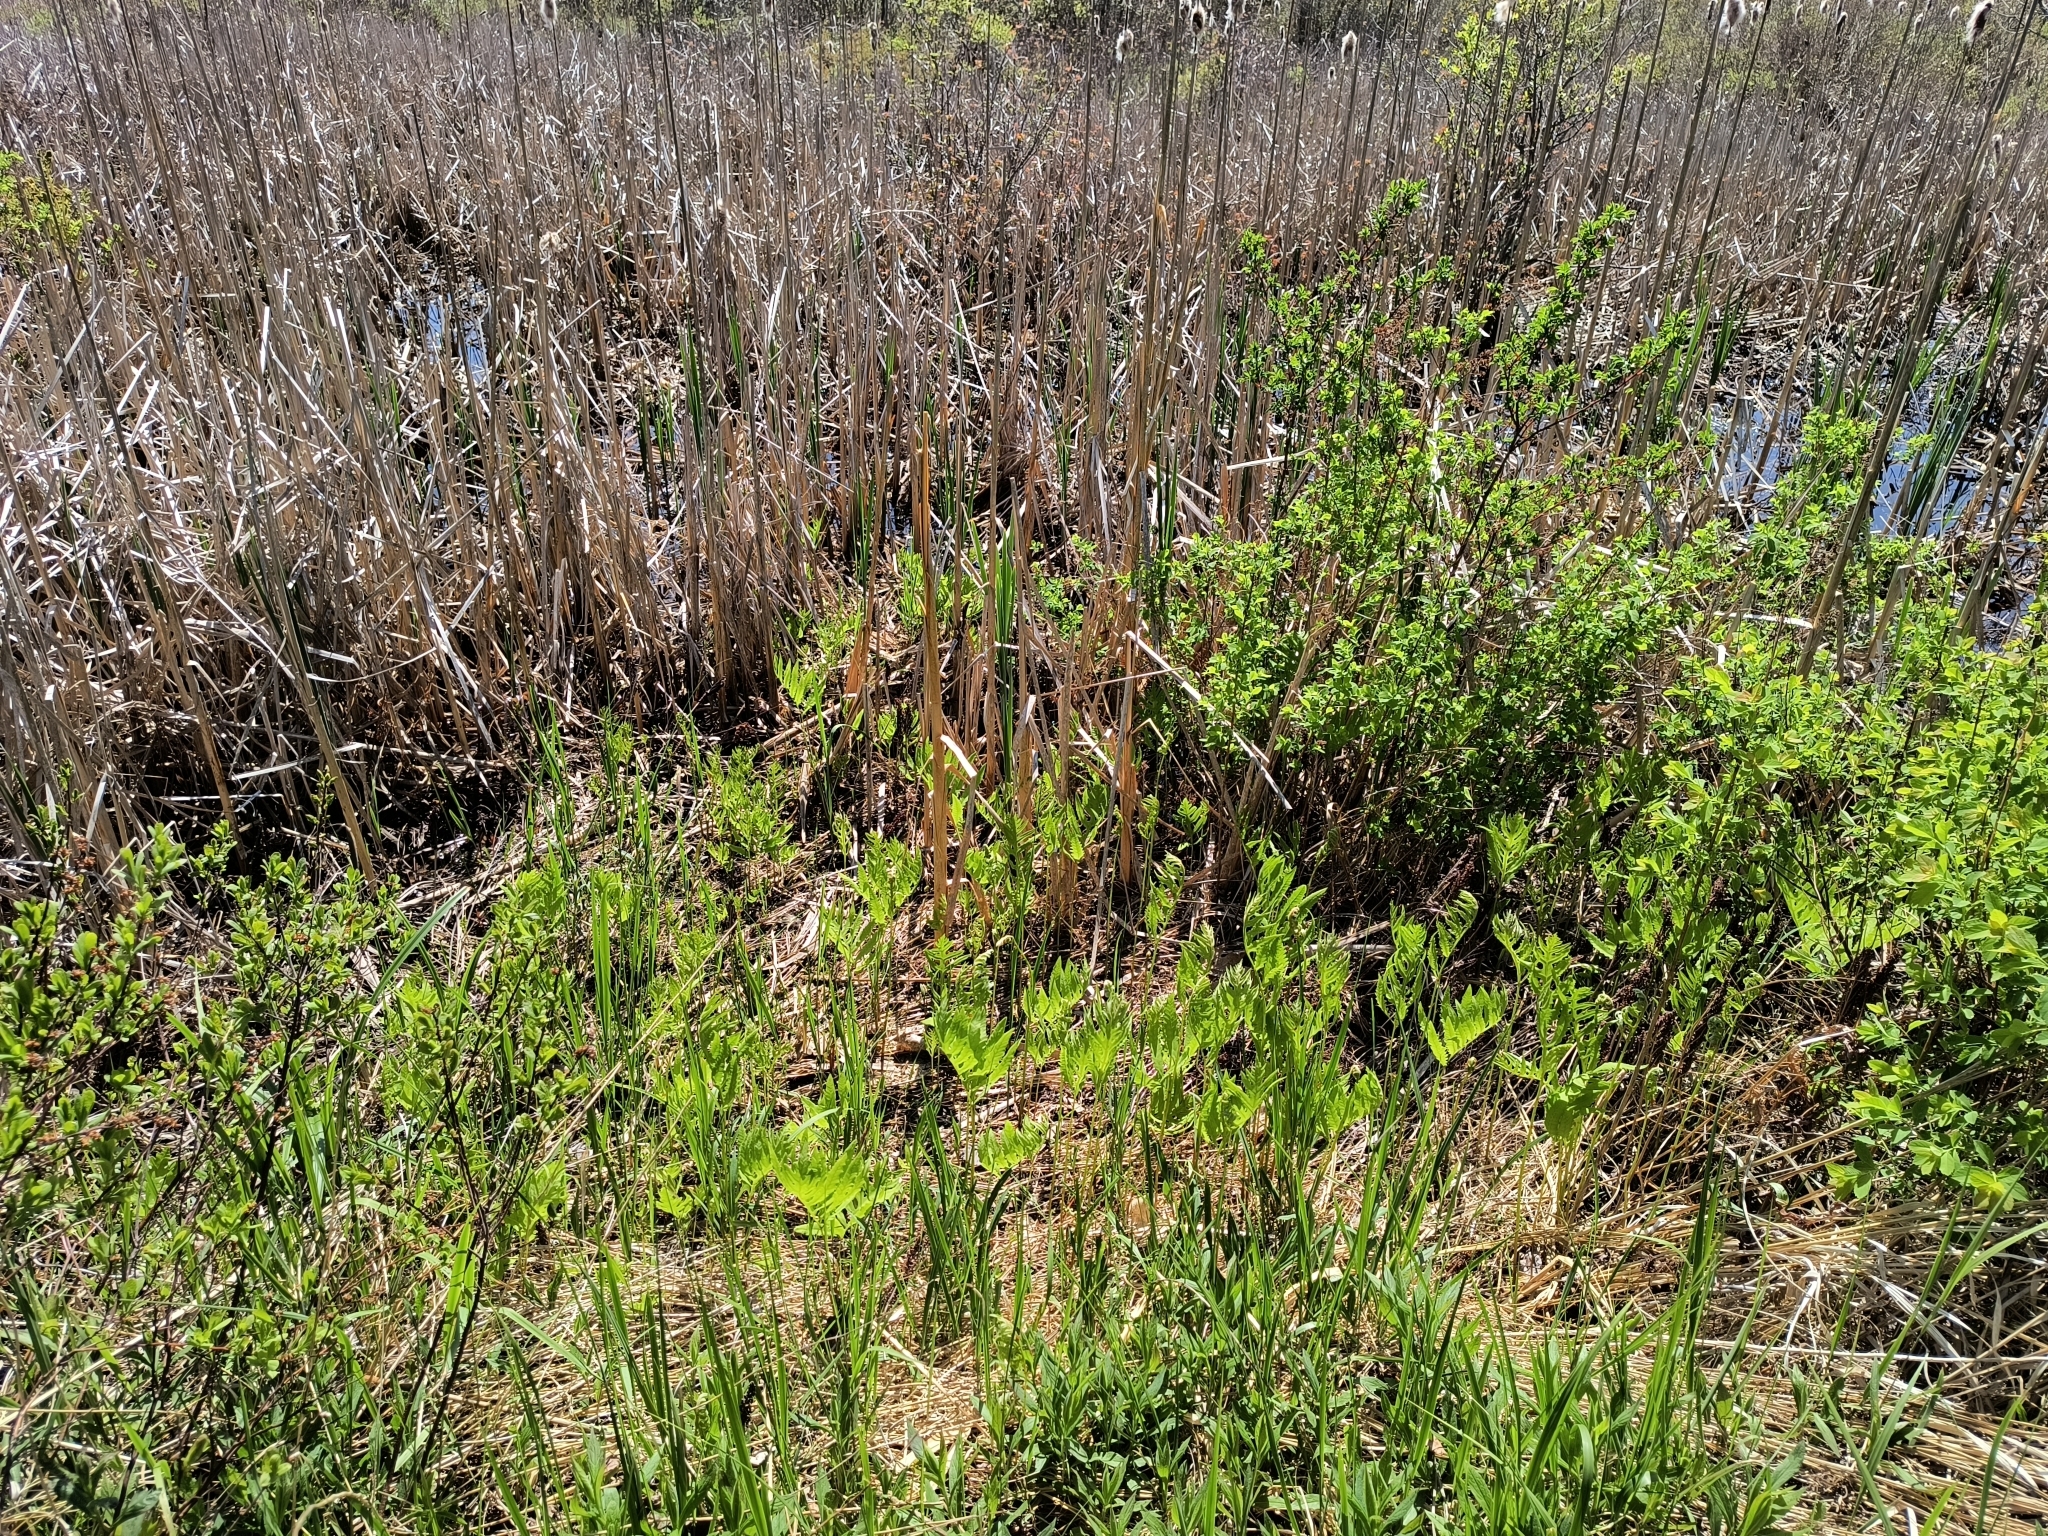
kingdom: Plantae
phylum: Tracheophyta
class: Polypodiopsida
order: Polypodiales
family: Onocleaceae
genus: Onoclea
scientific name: Onoclea sensibilis
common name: Sensitive fern
